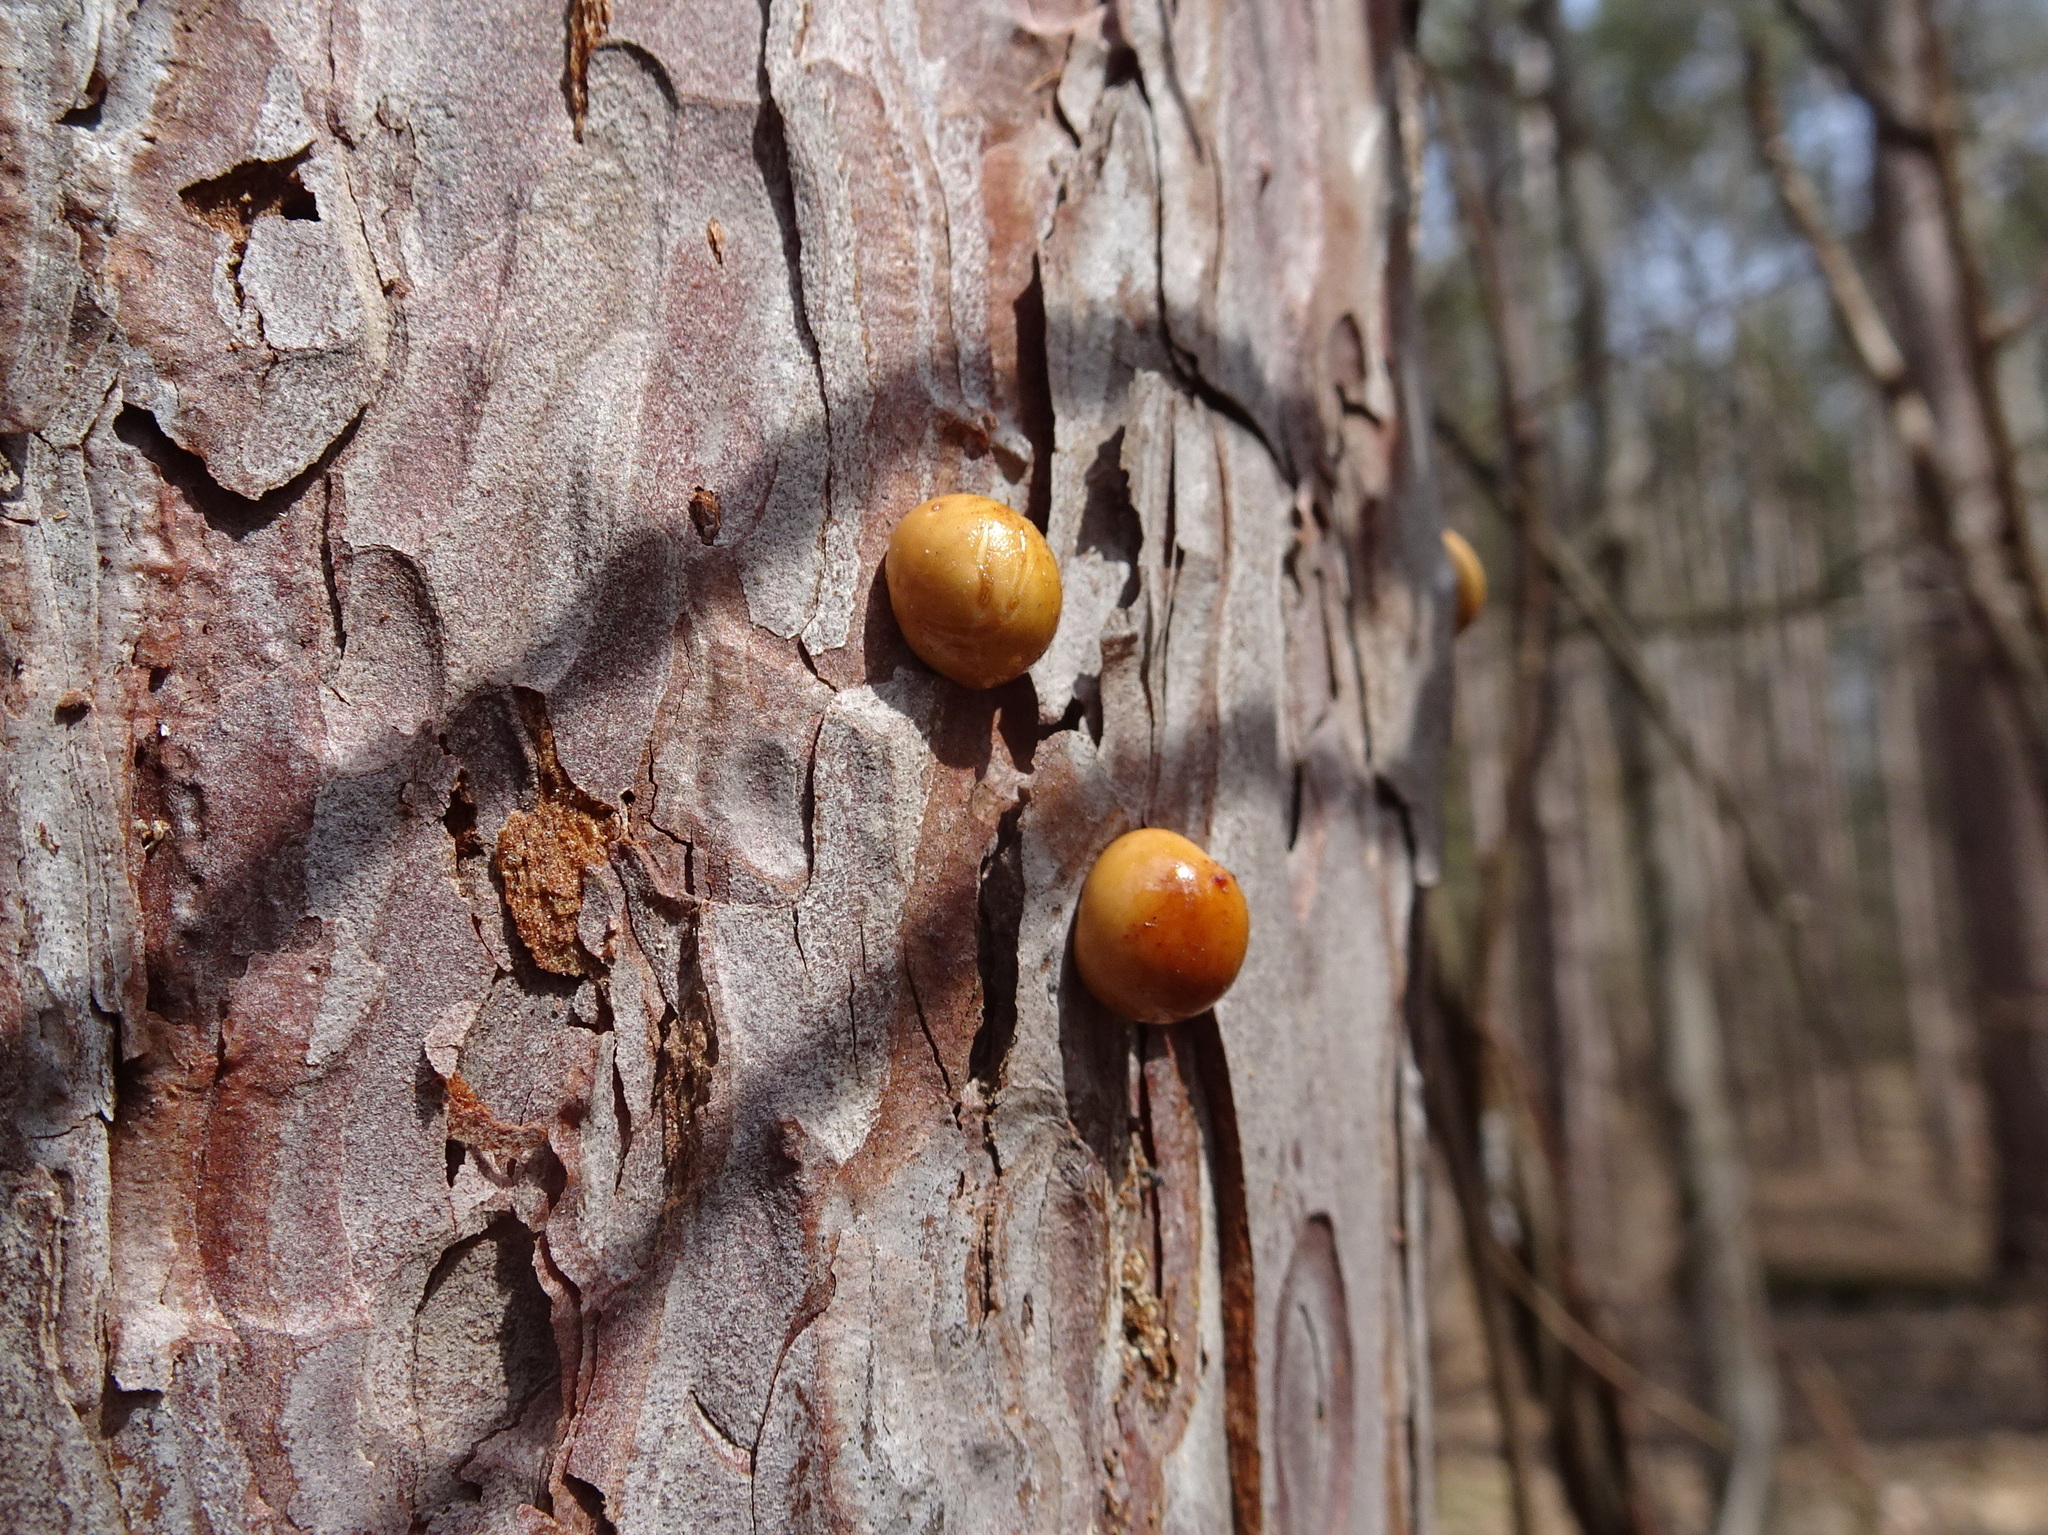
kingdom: Fungi
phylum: Basidiomycota
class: Agaricomycetes
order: Polyporales
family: Polyporaceae
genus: Cryptoporus
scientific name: Cryptoporus volvatus
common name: Veiled polypore
